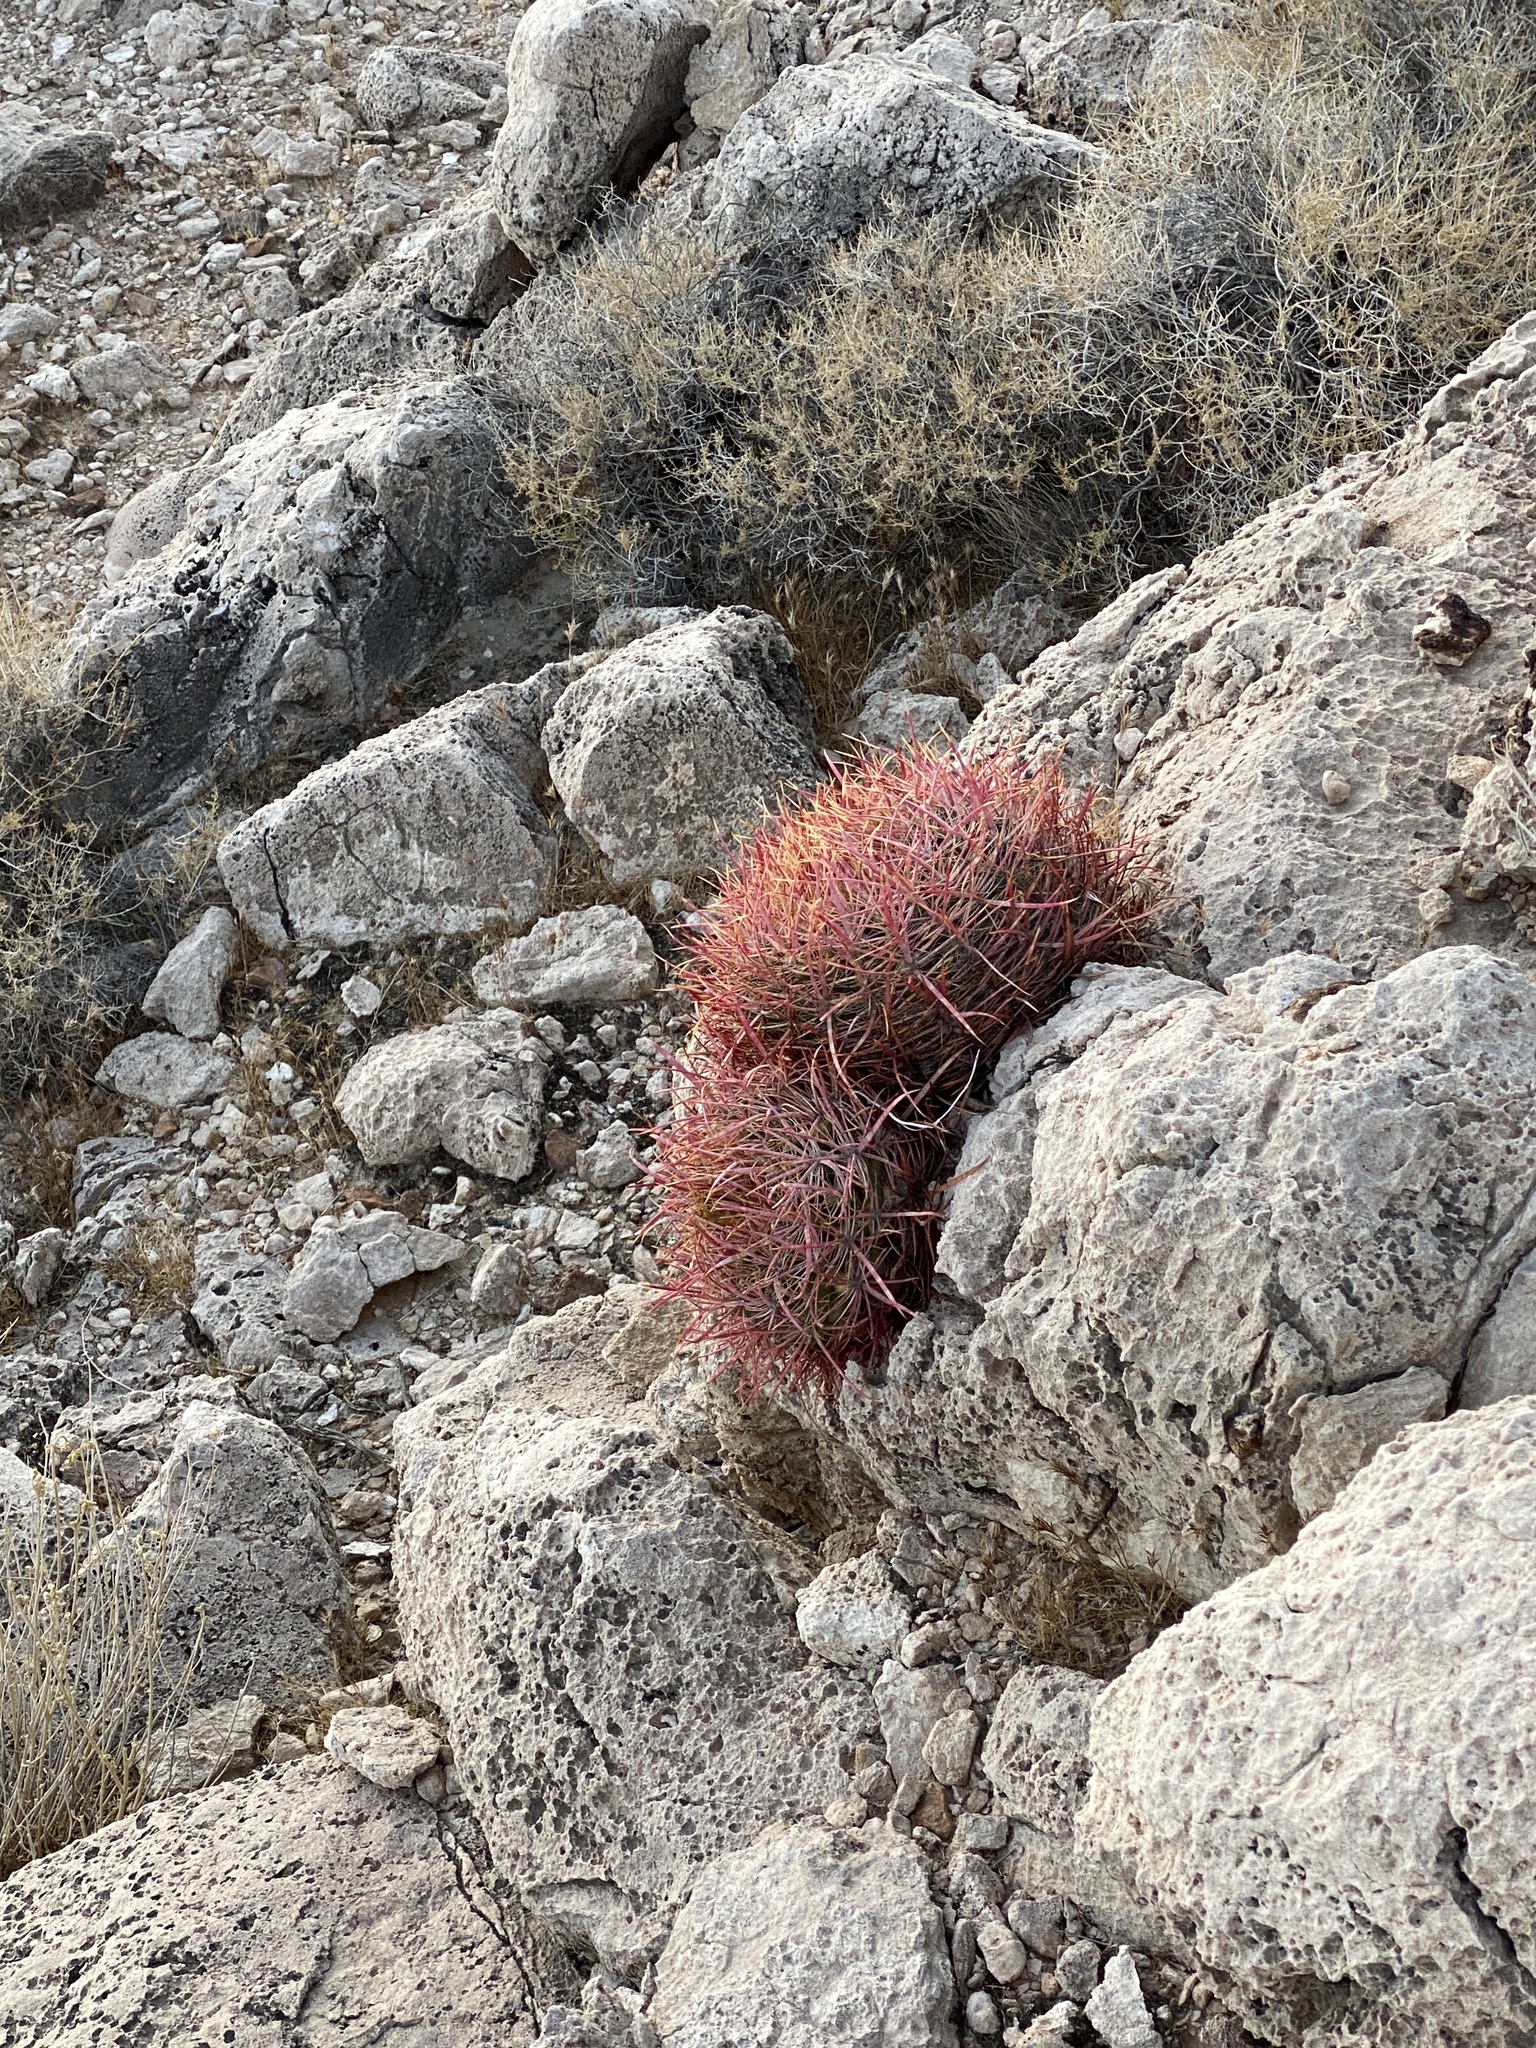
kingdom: Plantae
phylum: Tracheophyta
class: Magnoliopsida
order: Caryophyllales
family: Cactaceae
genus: Ferocactus
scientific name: Ferocactus cylindraceus
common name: California barrel cactus
